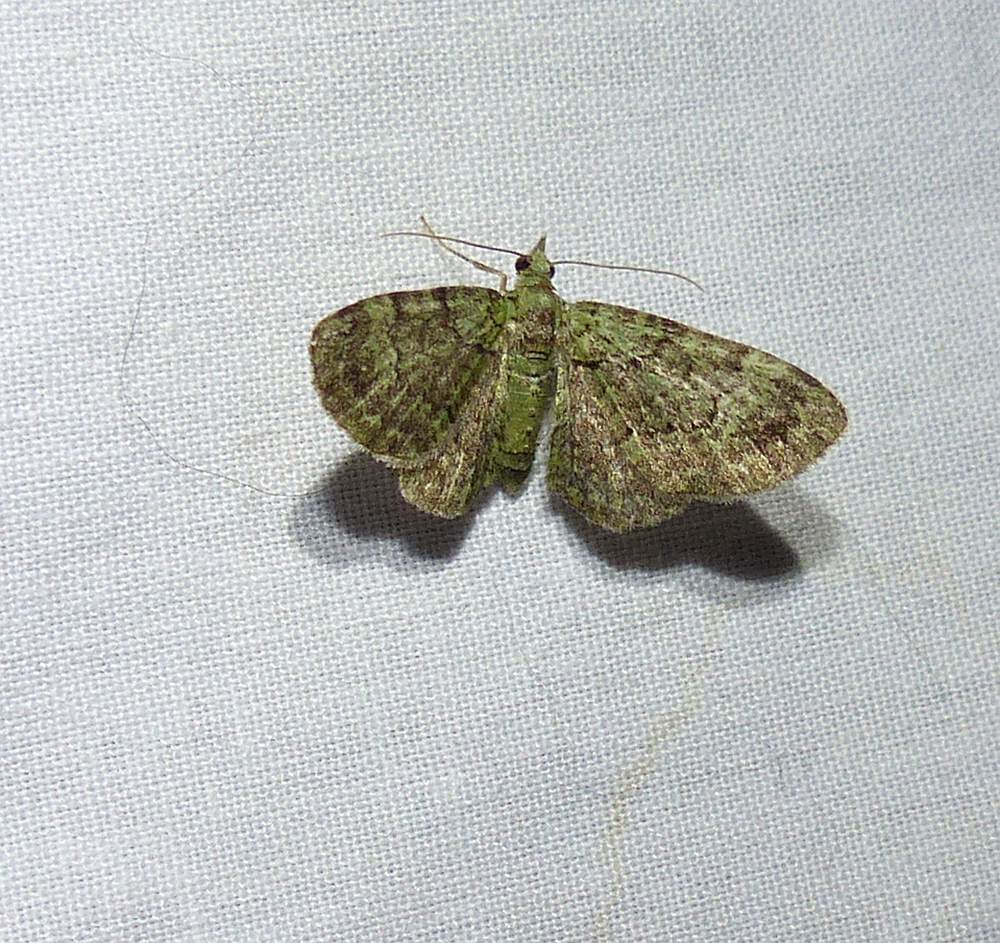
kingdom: Animalia
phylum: Arthropoda
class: Insecta
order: Lepidoptera
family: Geometridae
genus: Pasiphila
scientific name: Pasiphila rectangulata
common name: Green pug
